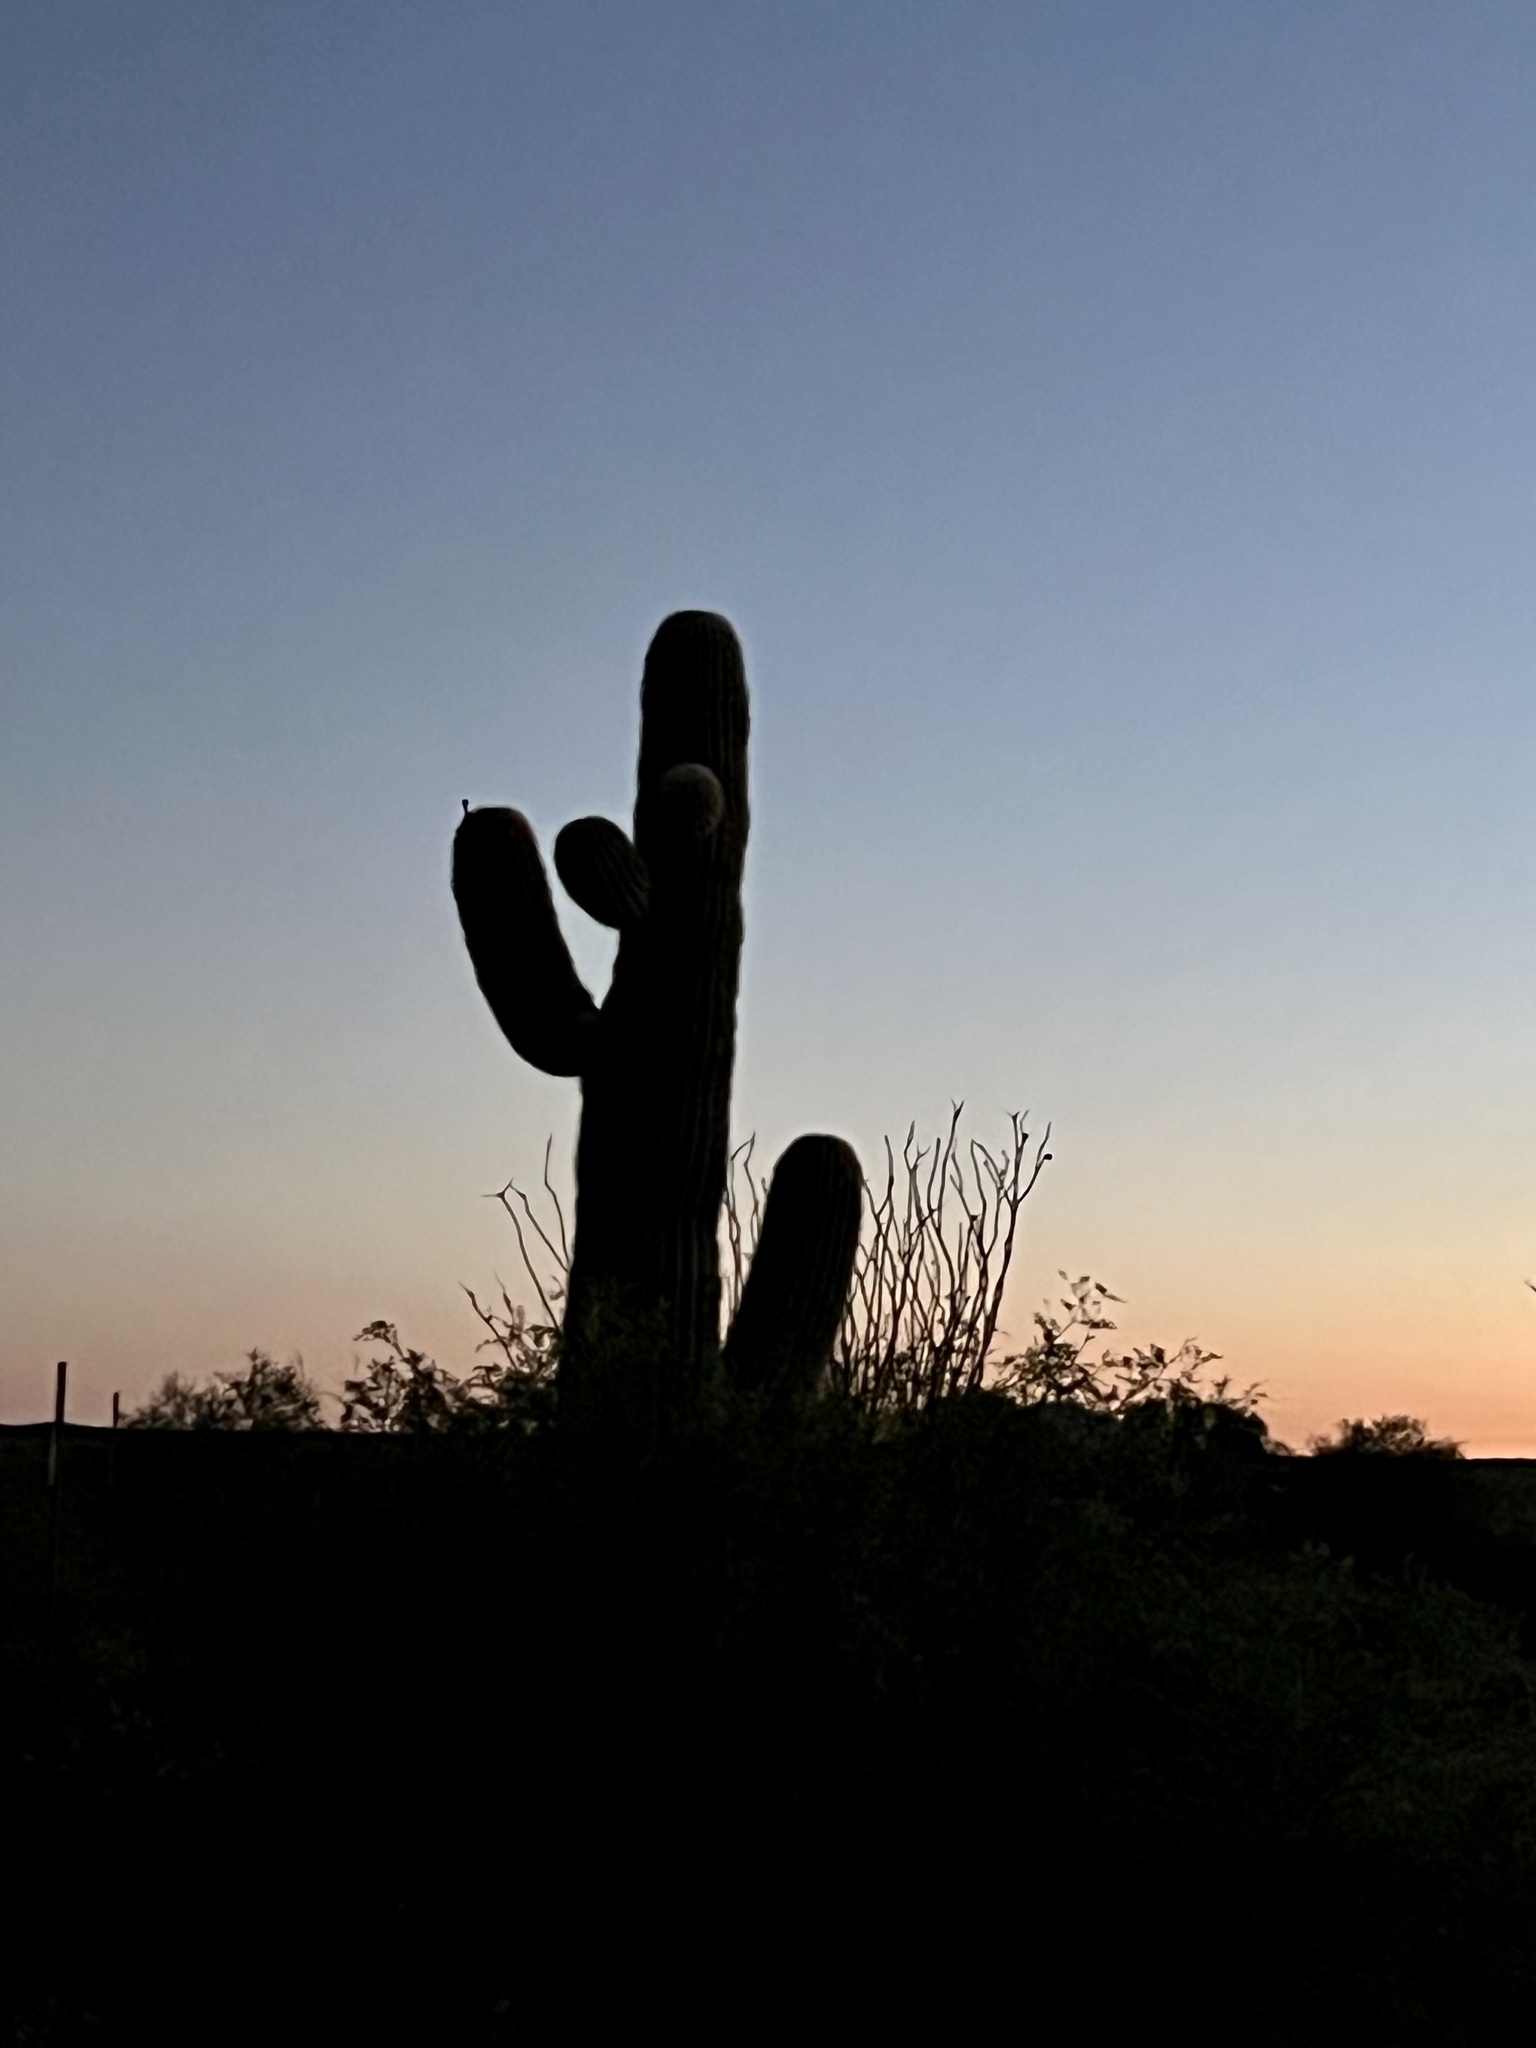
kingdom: Plantae
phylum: Tracheophyta
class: Magnoliopsida
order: Caryophyllales
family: Cactaceae
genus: Carnegiea
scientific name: Carnegiea gigantea
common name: Saguaro
